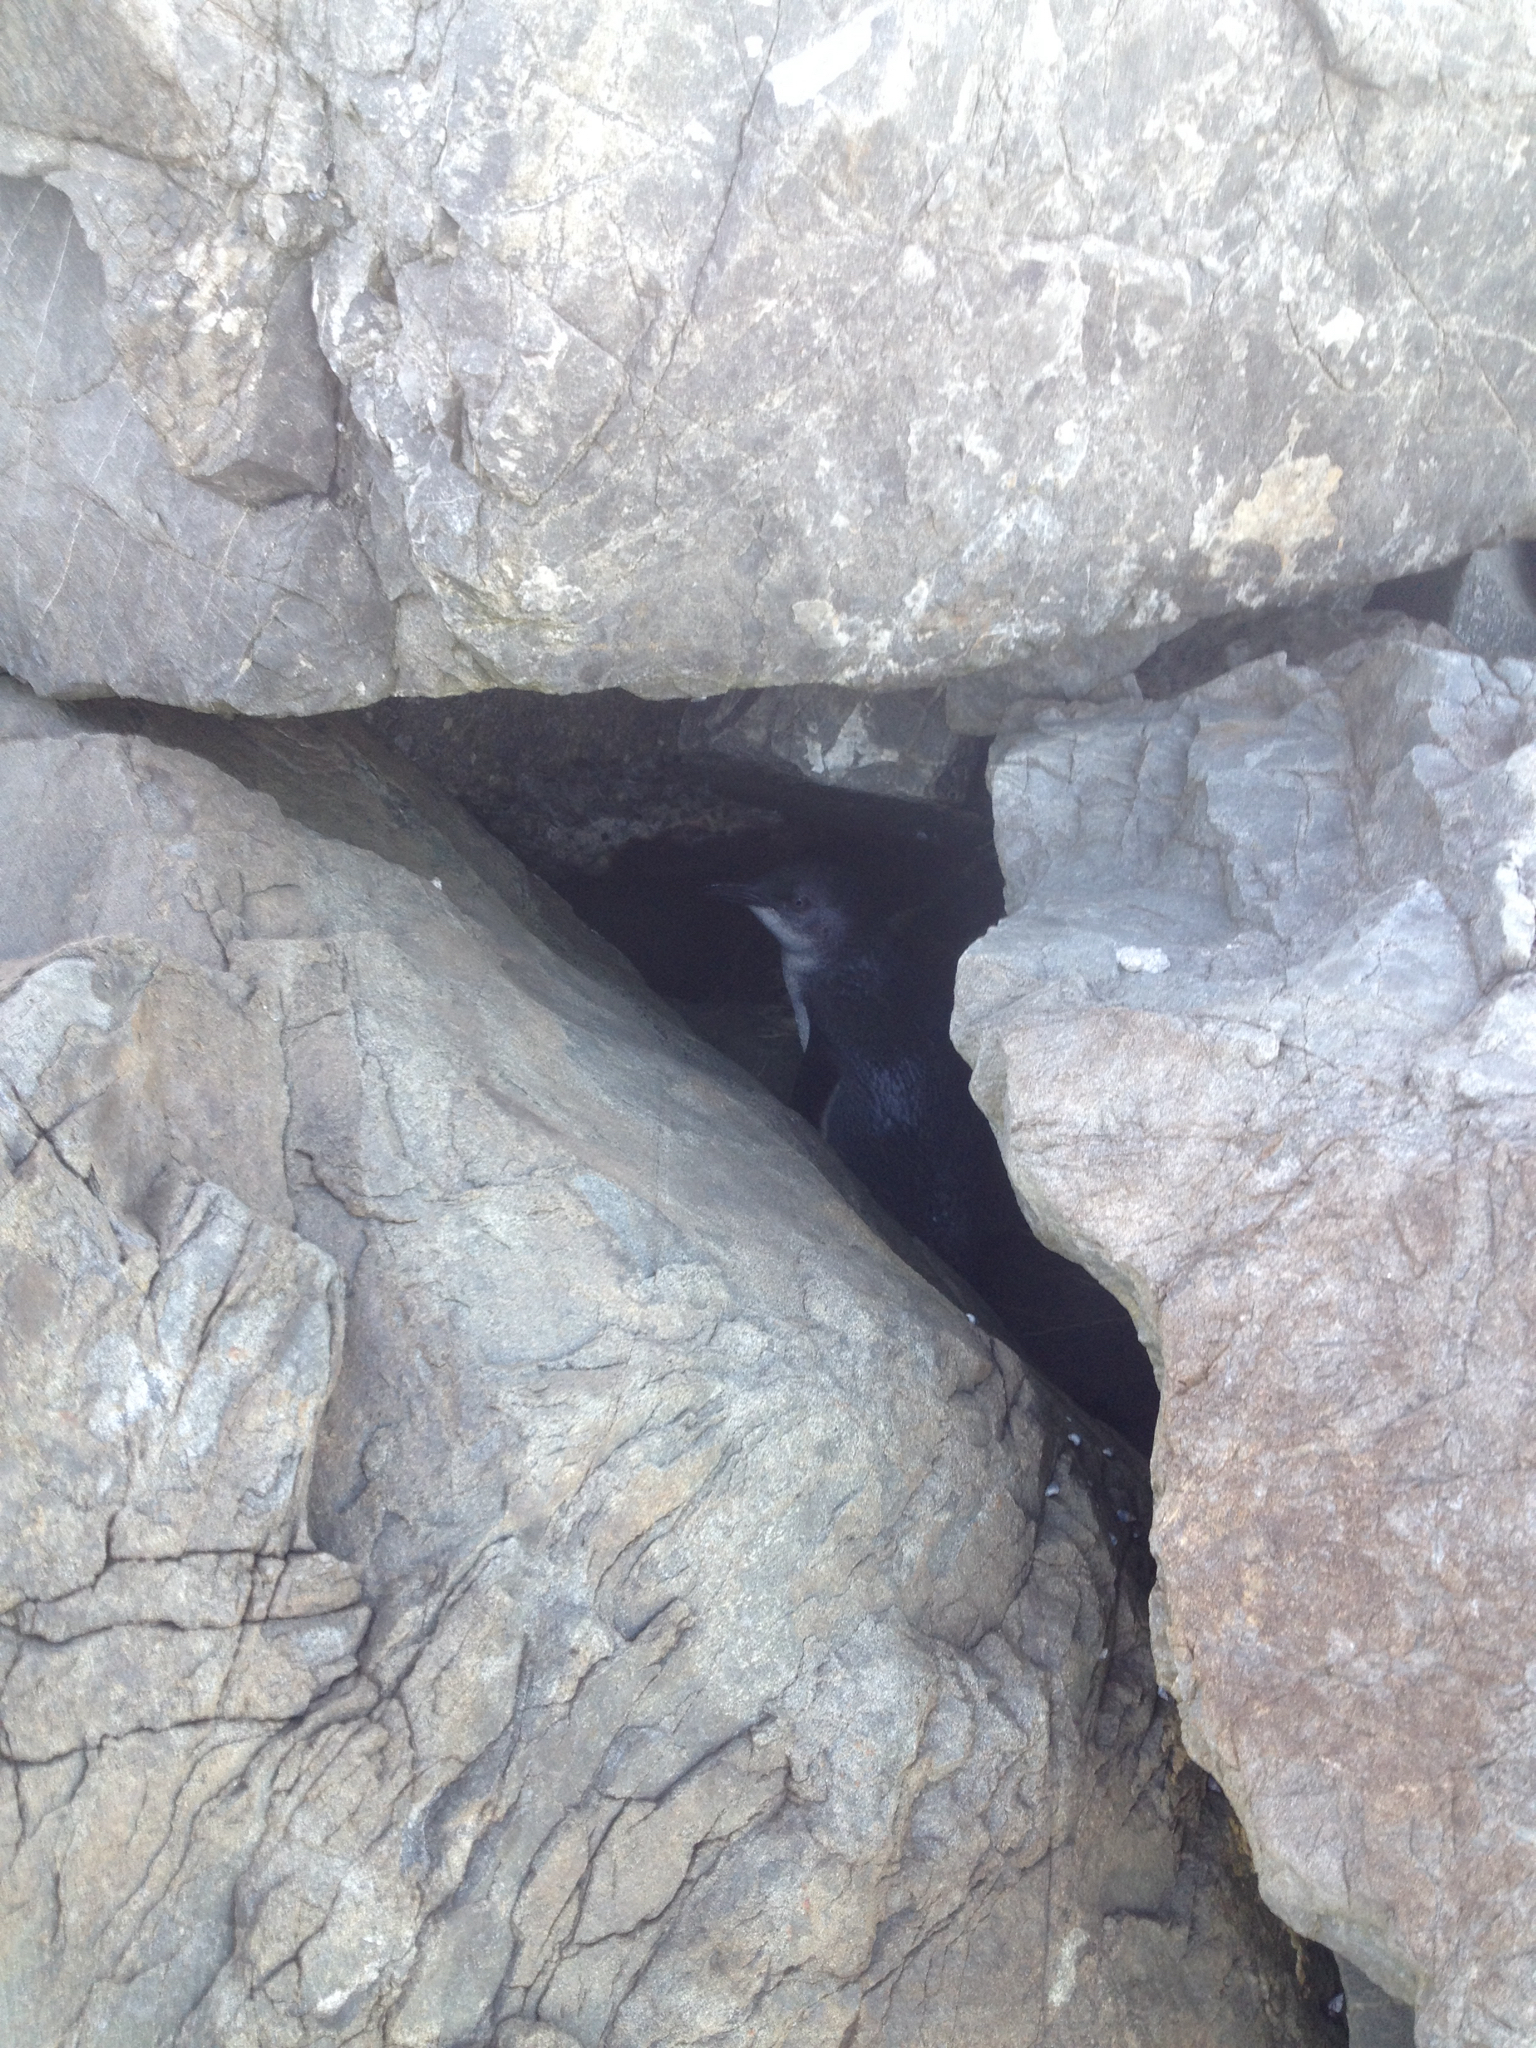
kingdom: Animalia
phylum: Chordata
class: Aves
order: Sphenisciformes
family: Spheniscidae
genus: Eudyptula
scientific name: Eudyptula minor
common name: Little penguin
